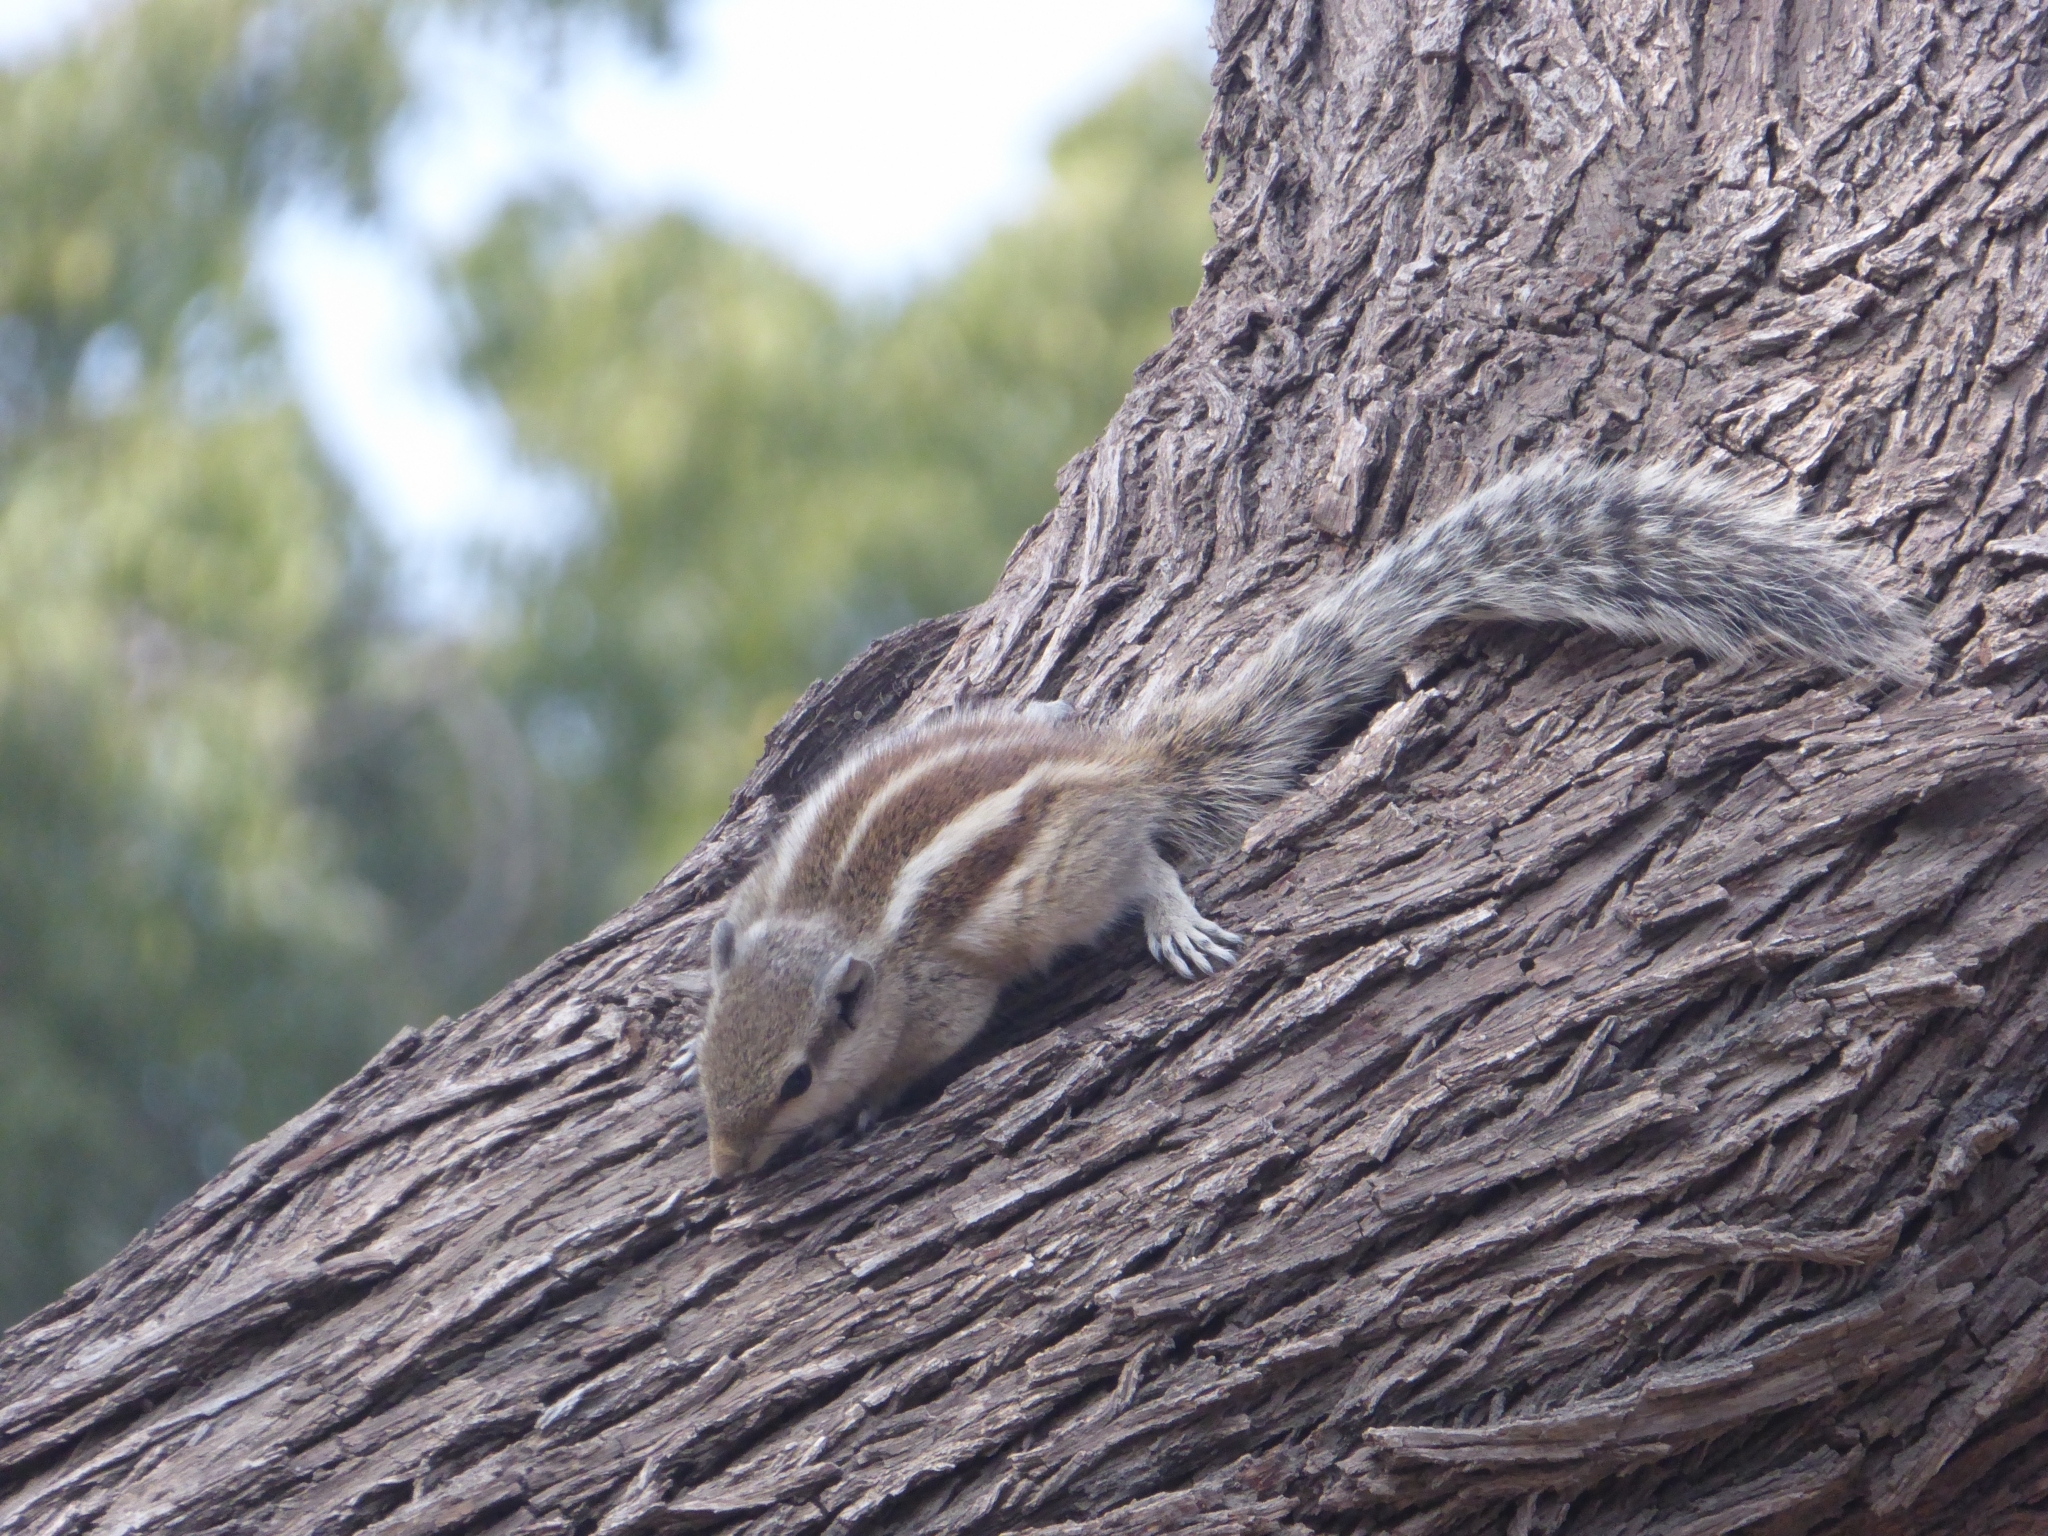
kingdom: Animalia
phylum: Chordata
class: Mammalia
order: Rodentia
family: Sciuridae
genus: Funambulus
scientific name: Funambulus pennantii
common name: Northern palm squirrel
